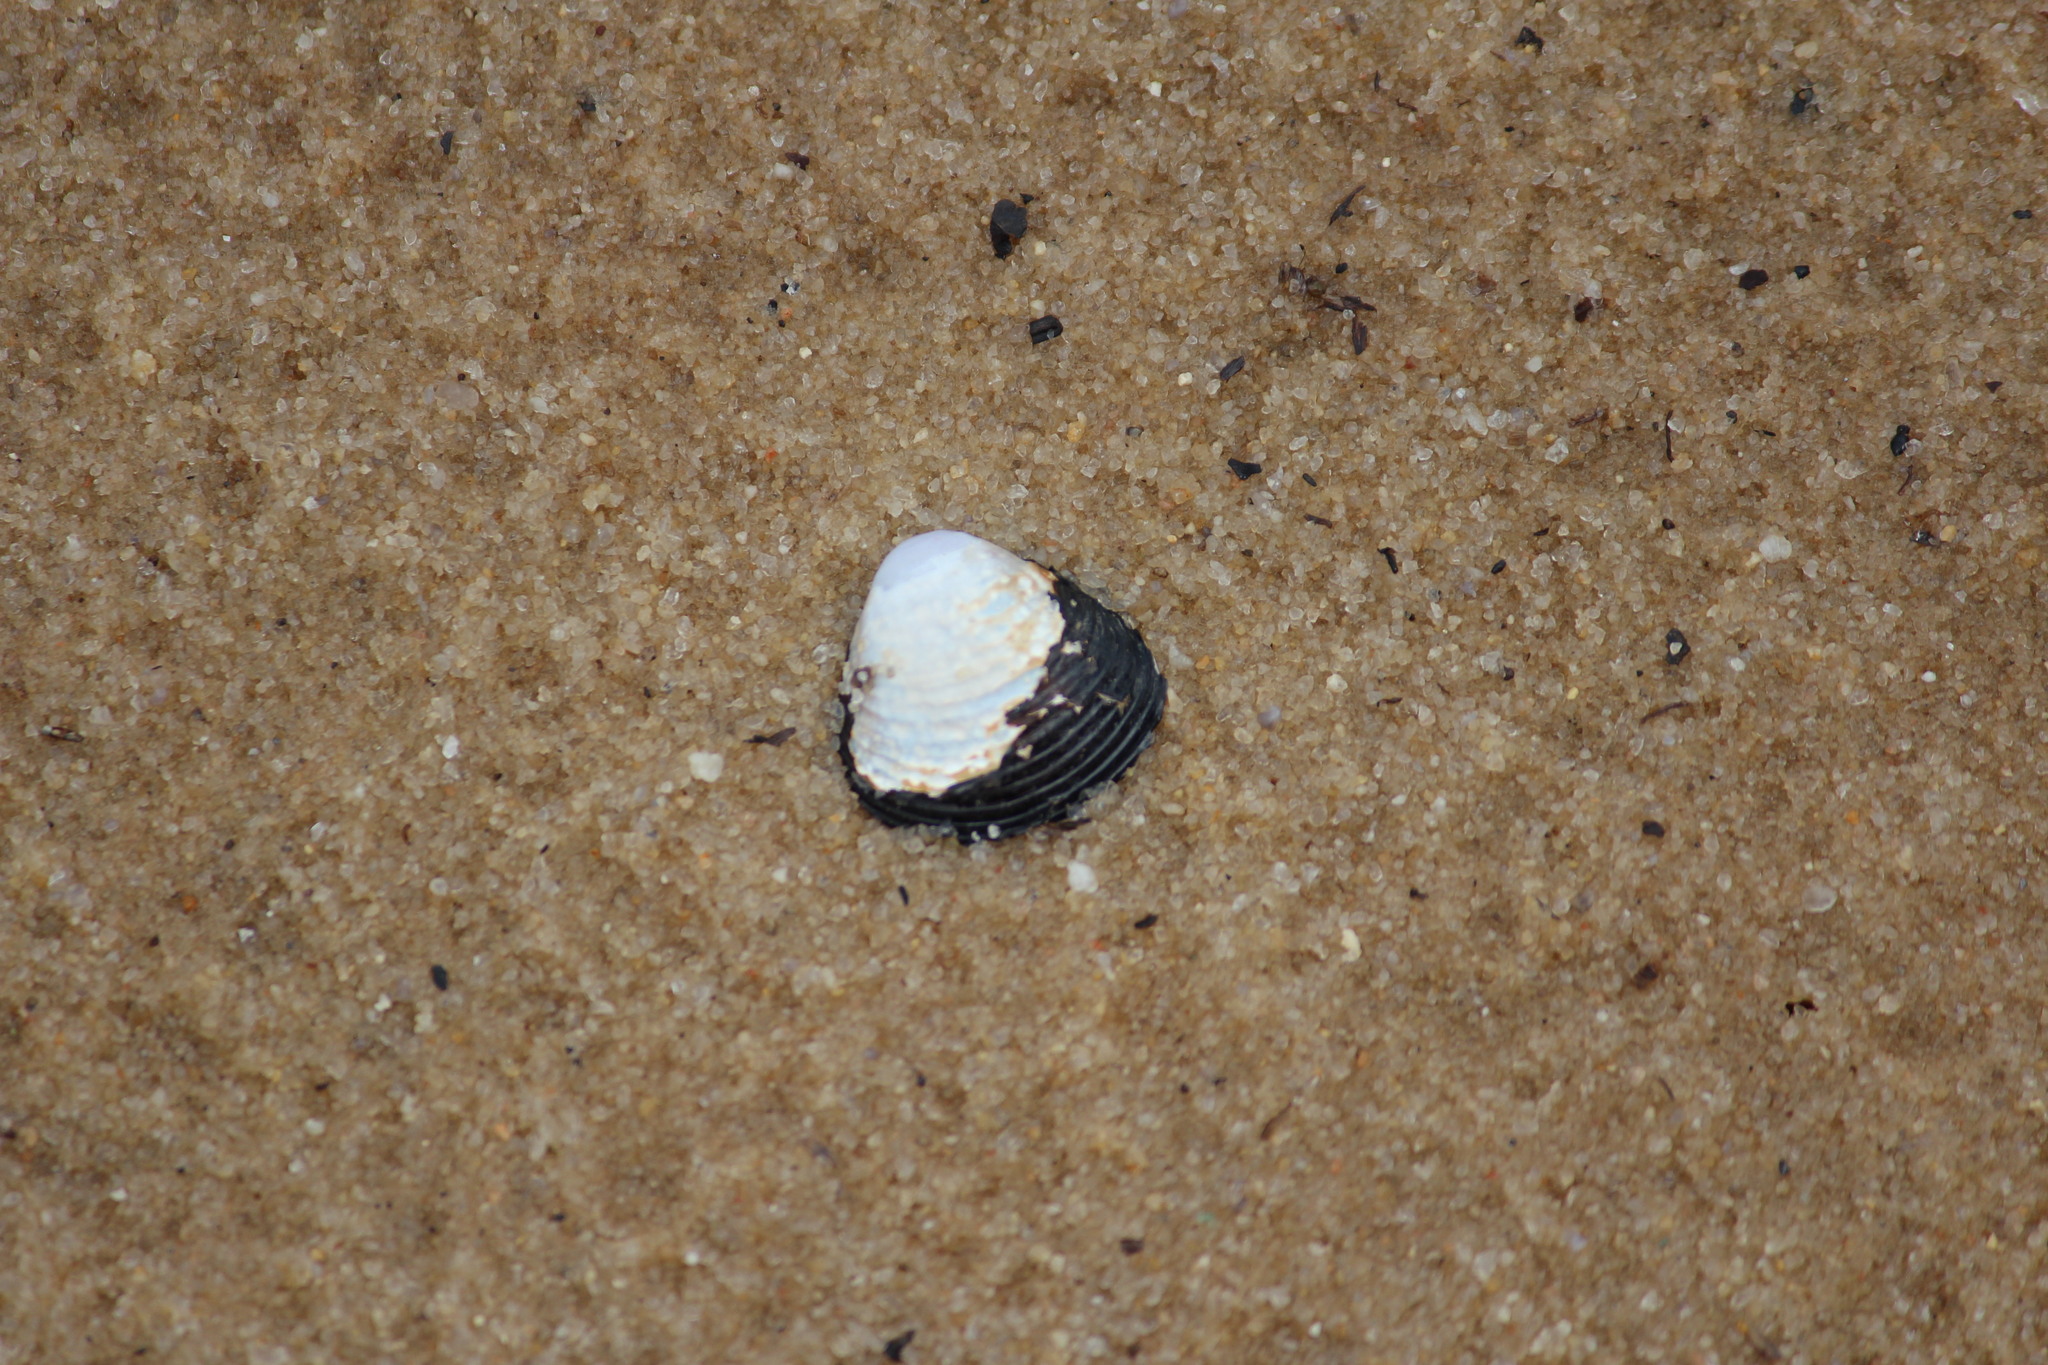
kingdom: Animalia
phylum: Mollusca
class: Bivalvia
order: Venerida
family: Cyrenidae
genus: Corbicula
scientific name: Corbicula fluminea
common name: Asian clam
